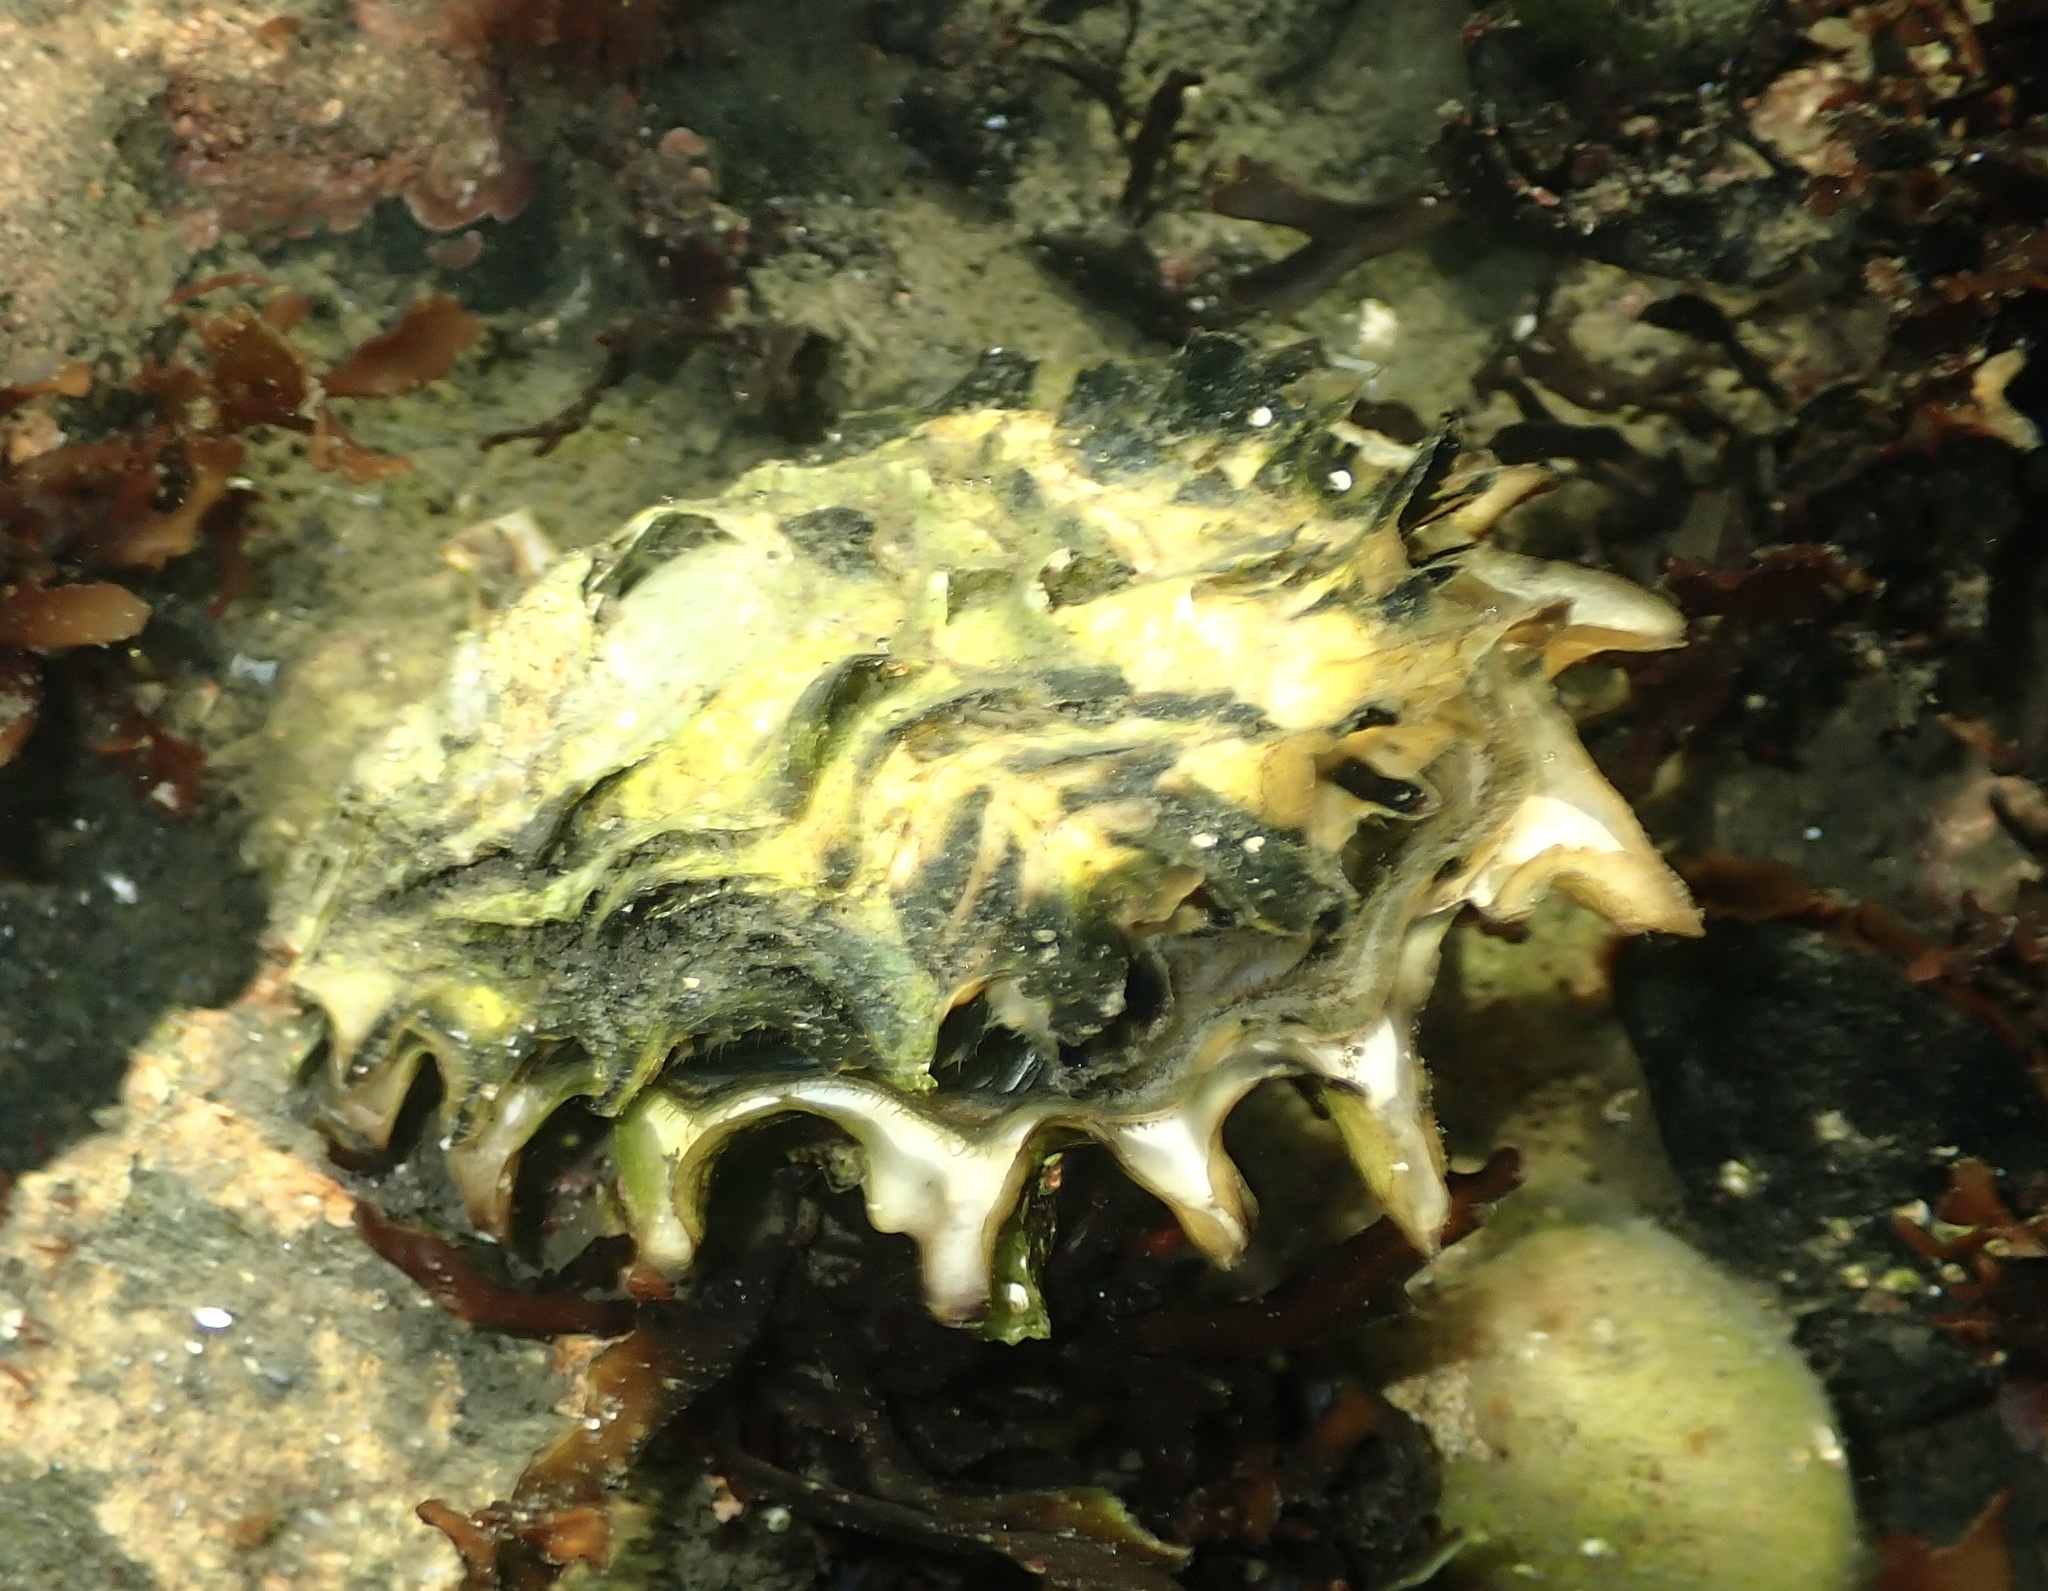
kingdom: Animalia
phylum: Mollusca
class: Bivalvia
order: Ostreida
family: Ostreidae
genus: Magallana
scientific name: Magallana gigas
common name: Pacific oyster
